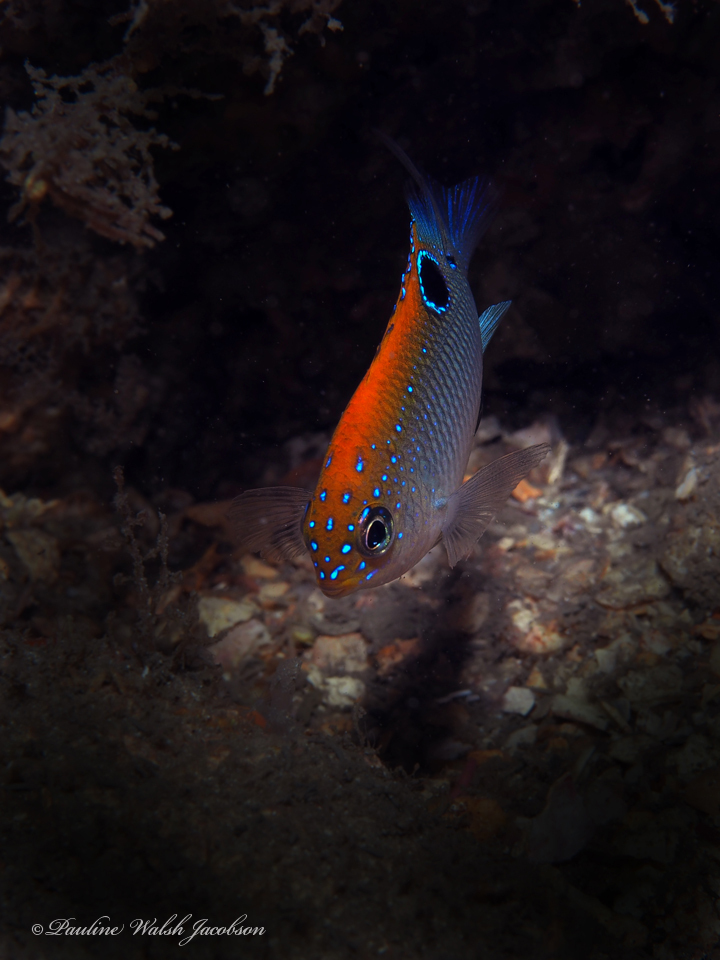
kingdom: Animalia
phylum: Chordata
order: Perciformes
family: Pomacentridae
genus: Stegastes
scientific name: Stegastes adustus
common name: Dusky damselfish
